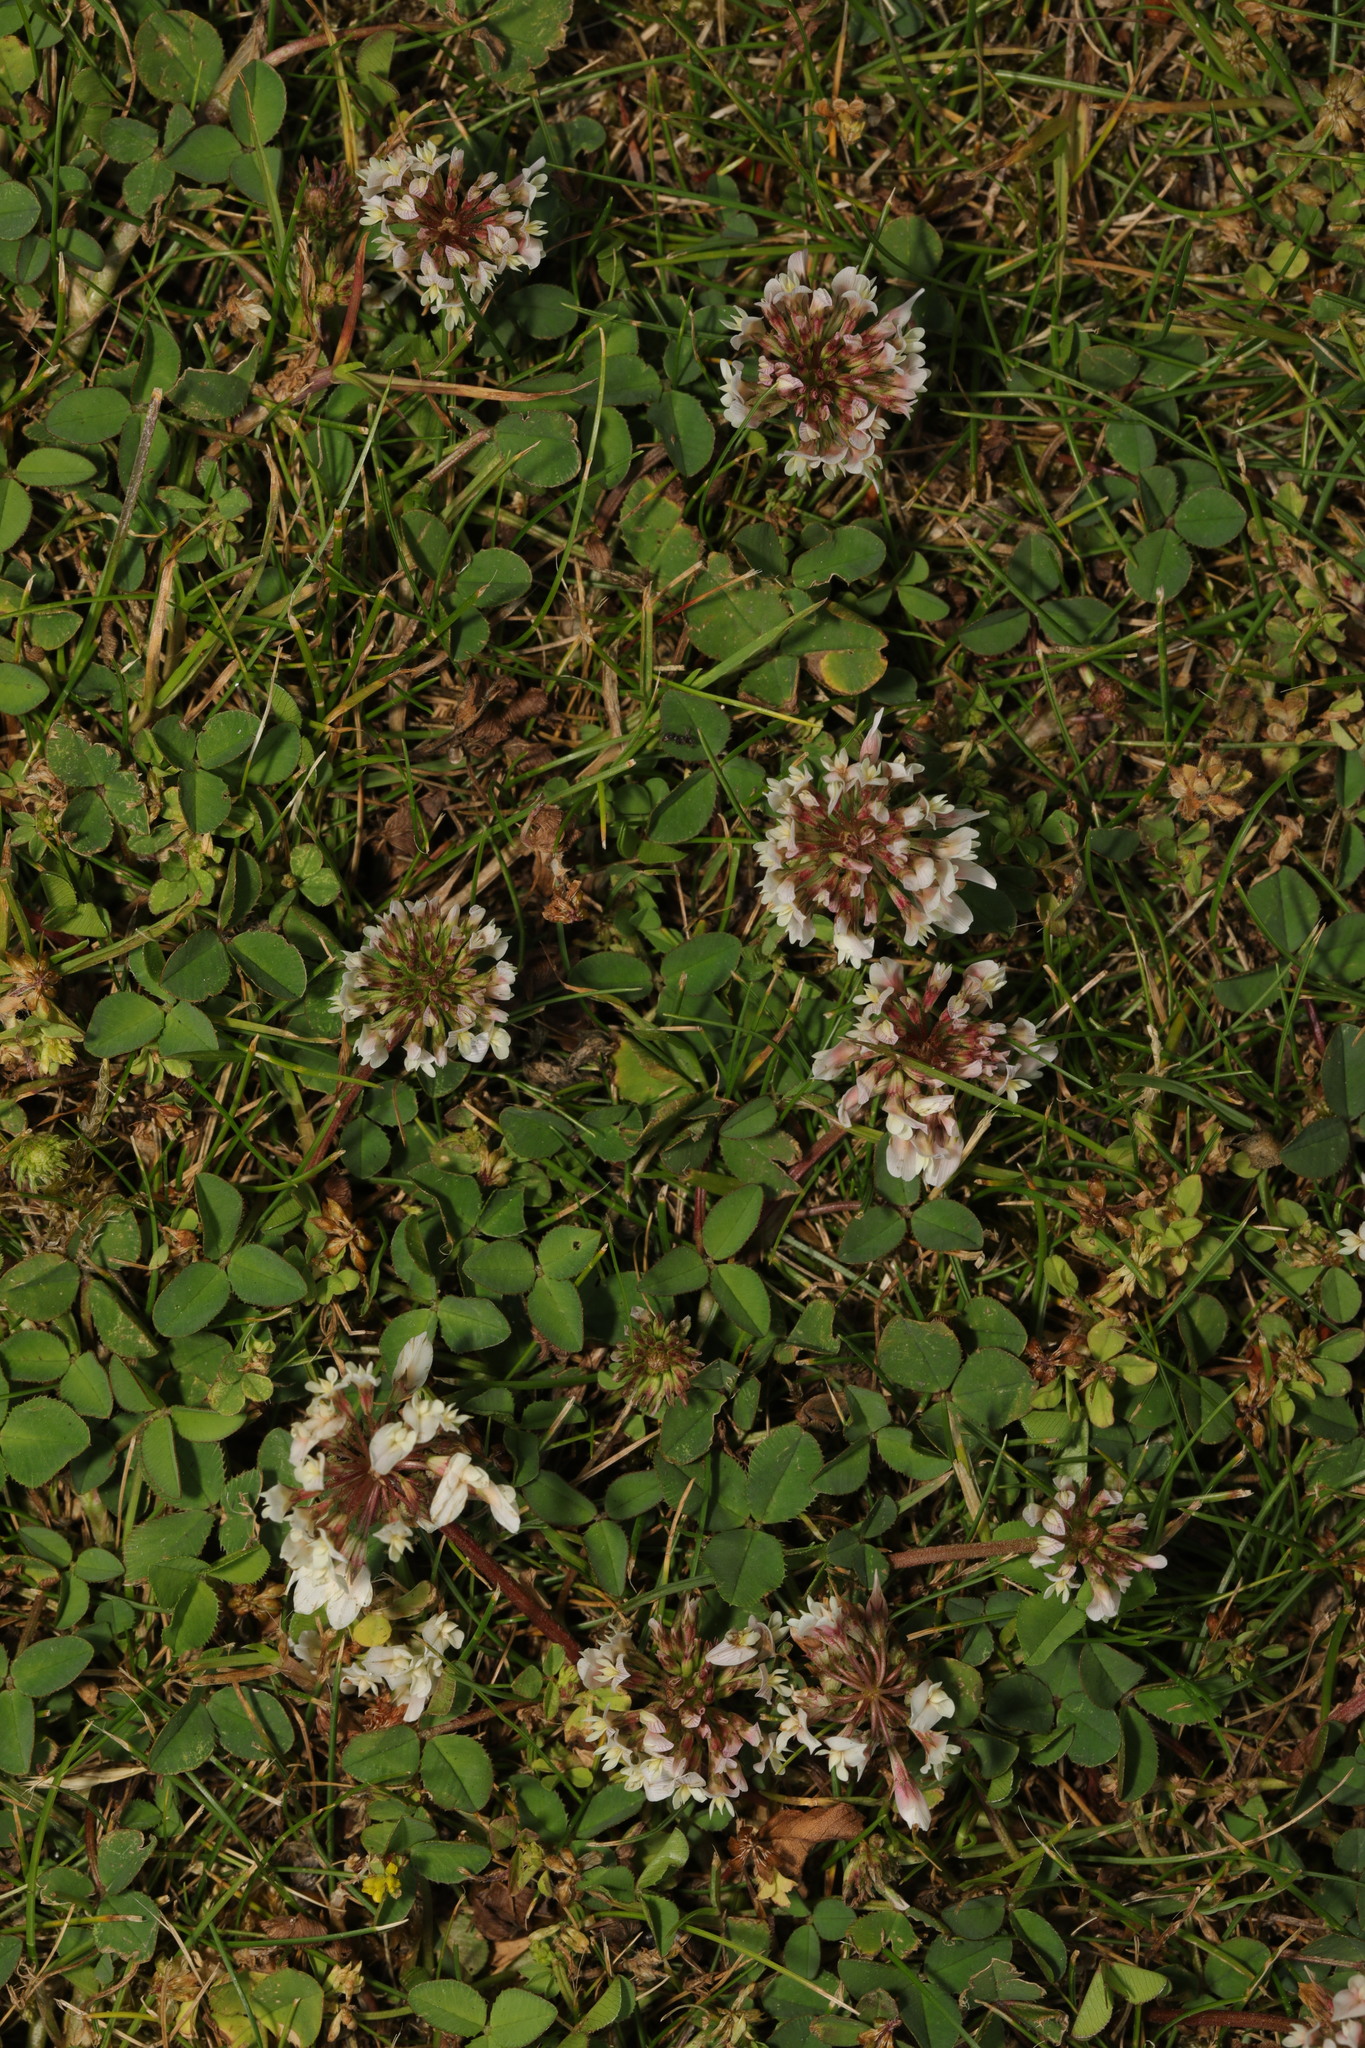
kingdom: Plantae
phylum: Tracheophyta
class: Magnoliopsida
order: Fabales
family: Fabaceae
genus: Trifolium
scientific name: Trifolium repens
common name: White clover
